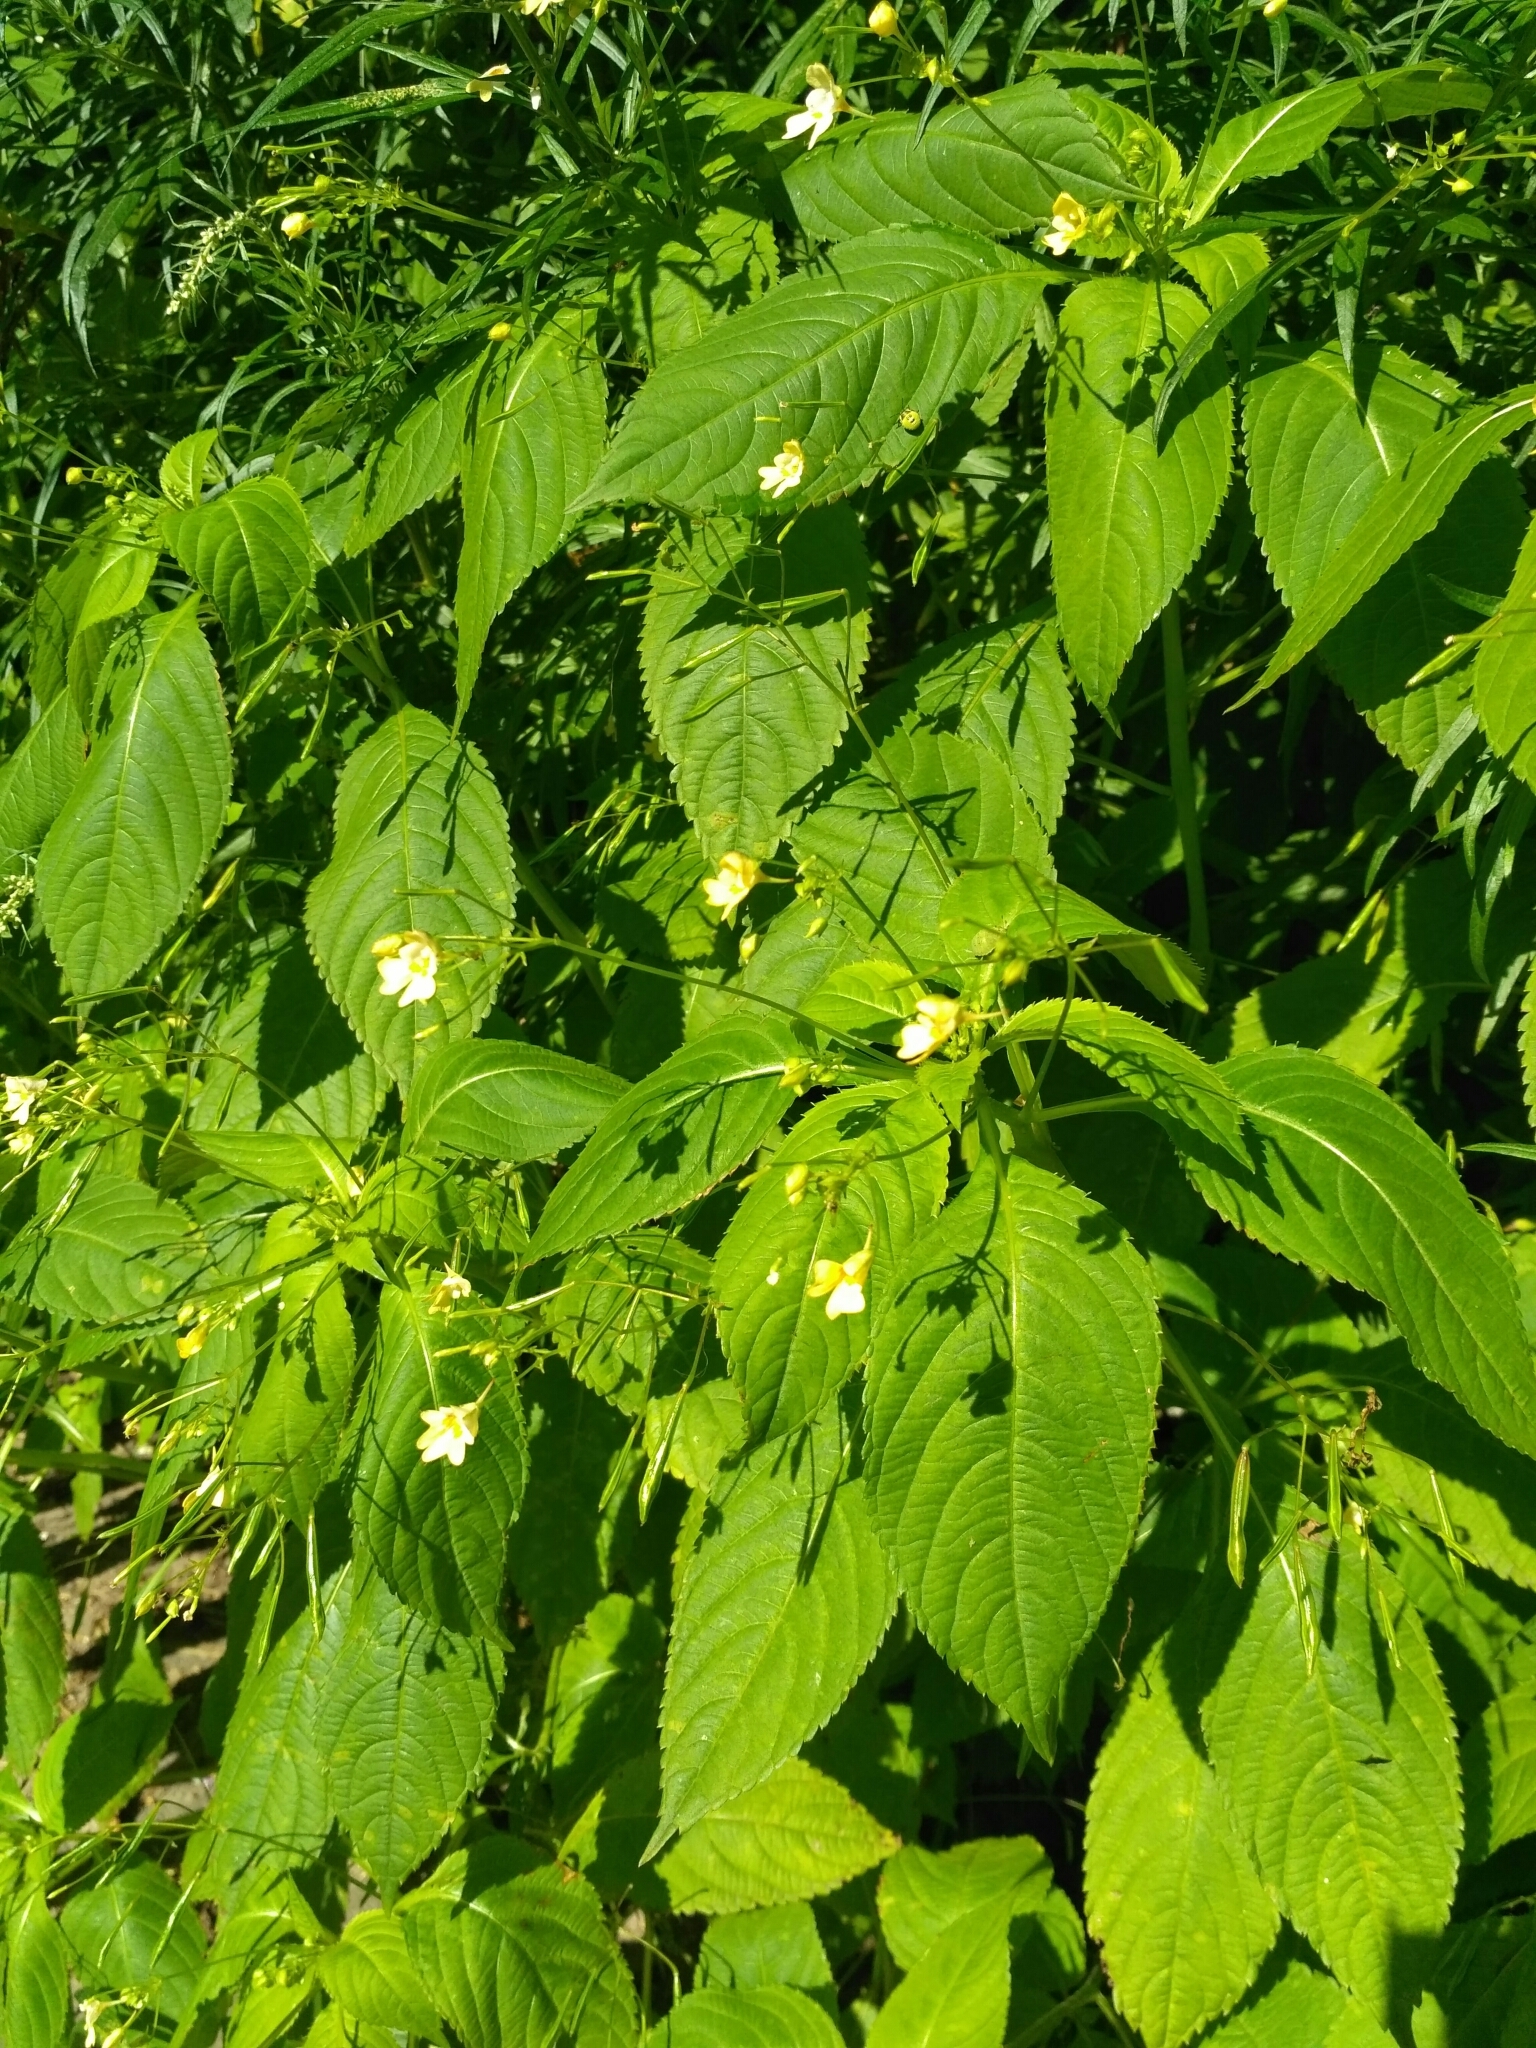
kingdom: Plantae
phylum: Tracheophyta
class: Magnoliopsida
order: Ericales
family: Balsaminaceae
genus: Impatiens
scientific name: Impatiens parviflora
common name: Small balsam
